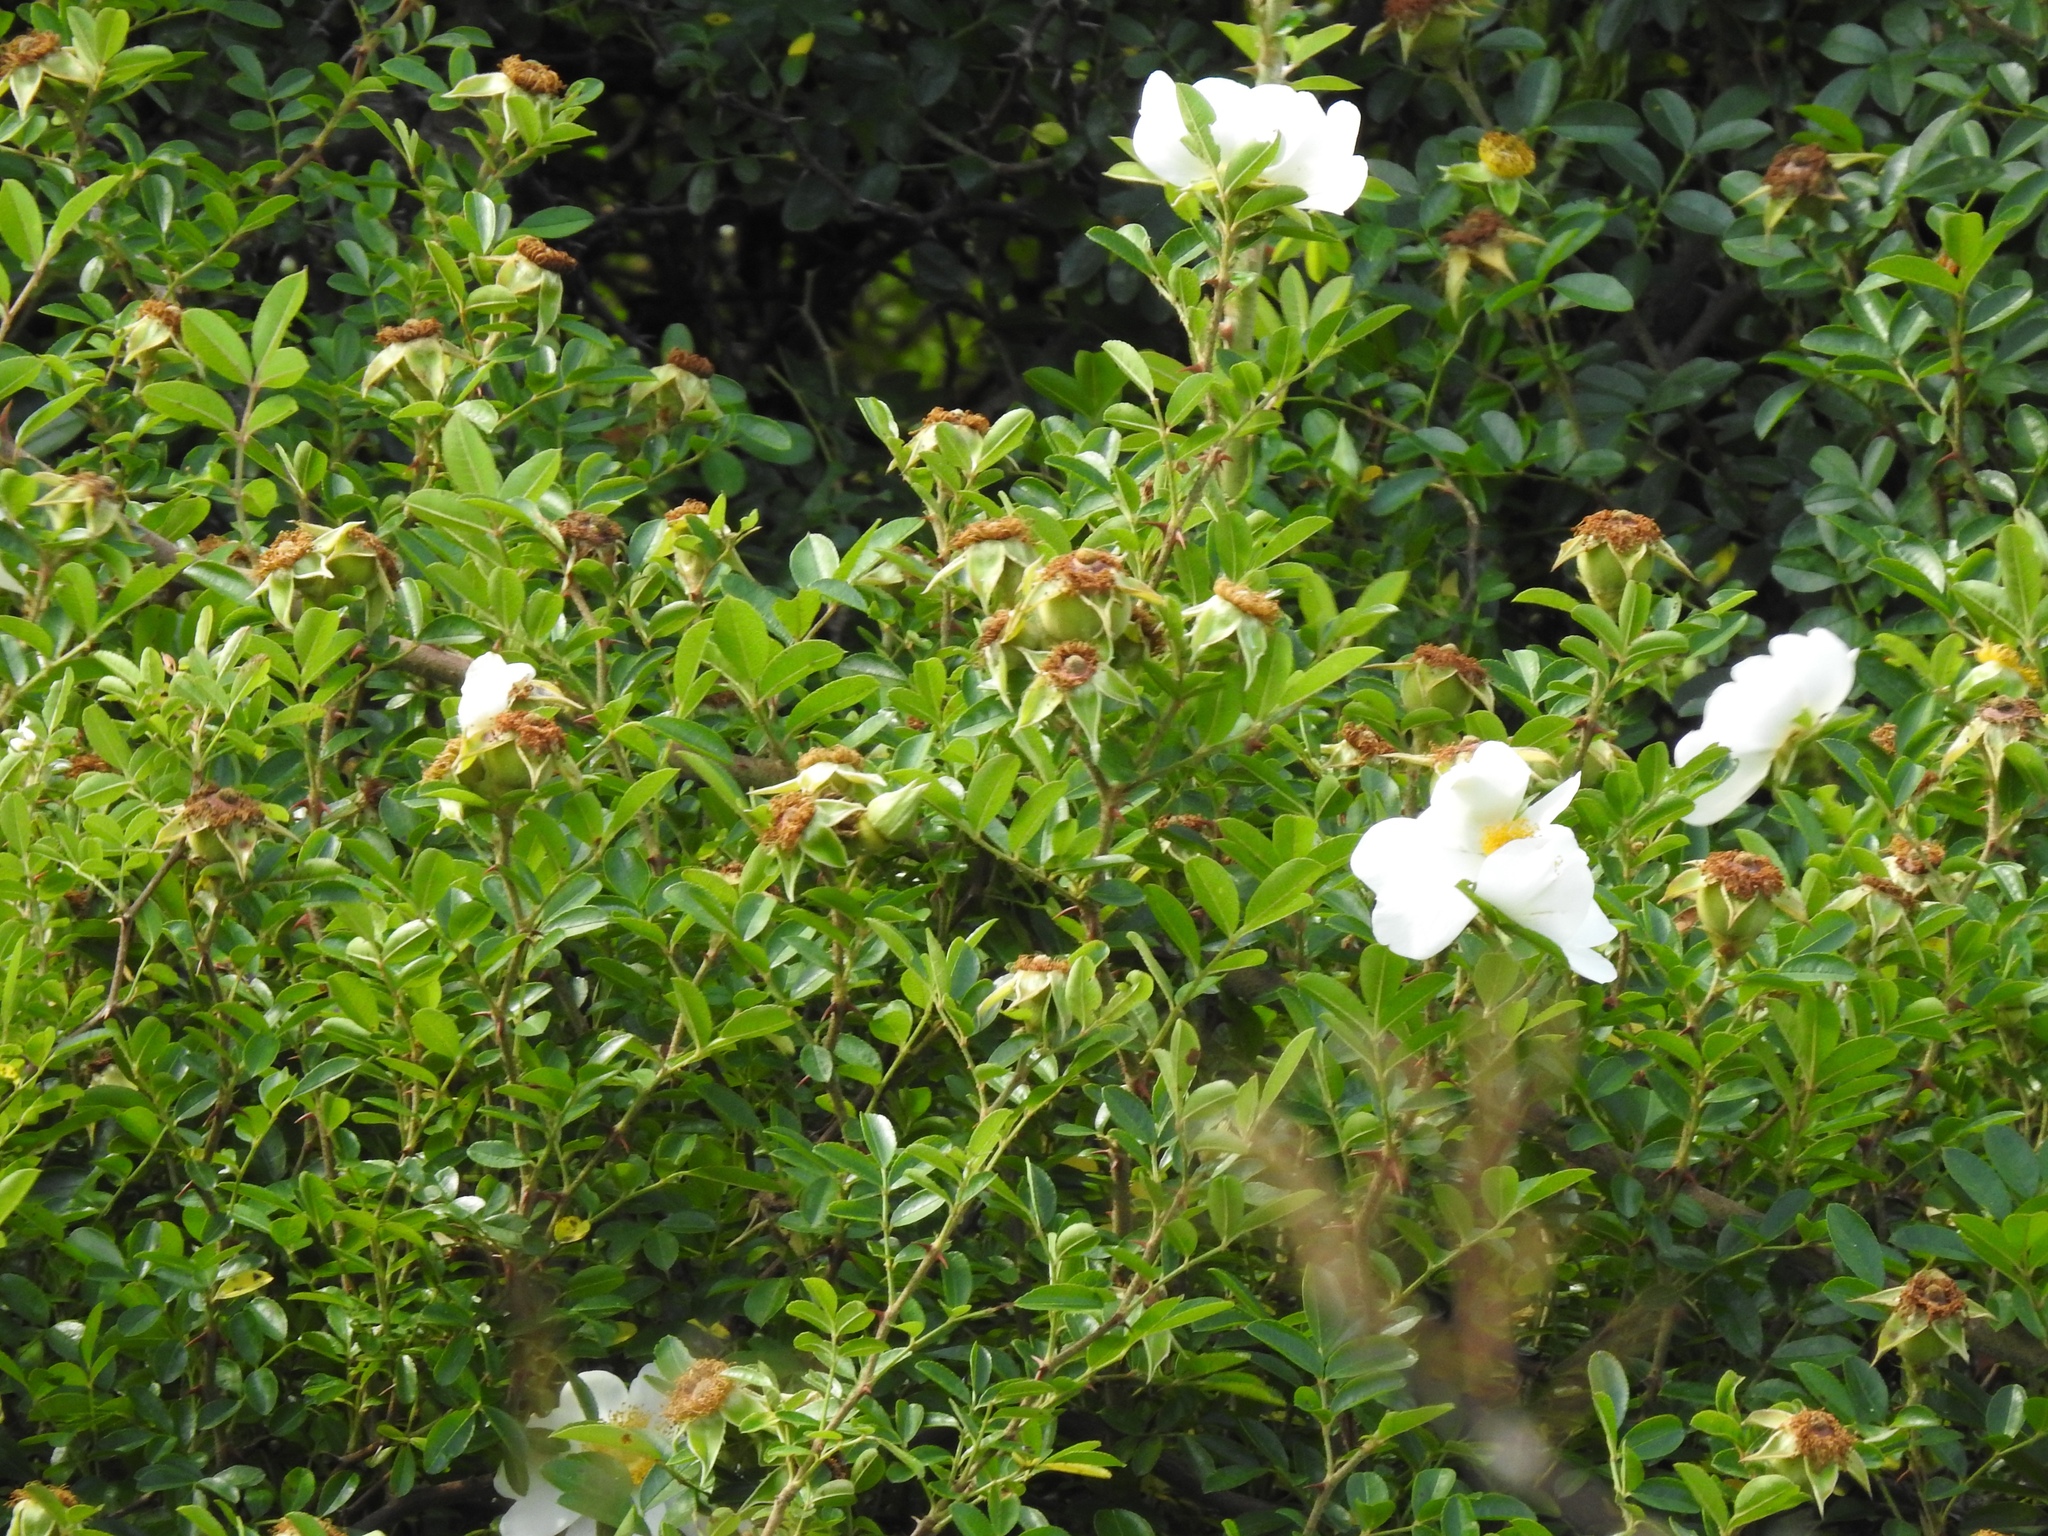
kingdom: Plantae
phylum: Tracheophyta
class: Magnoliopsida
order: Rosales
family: Rosaceae
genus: Rosa
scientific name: Rosa bracteata
